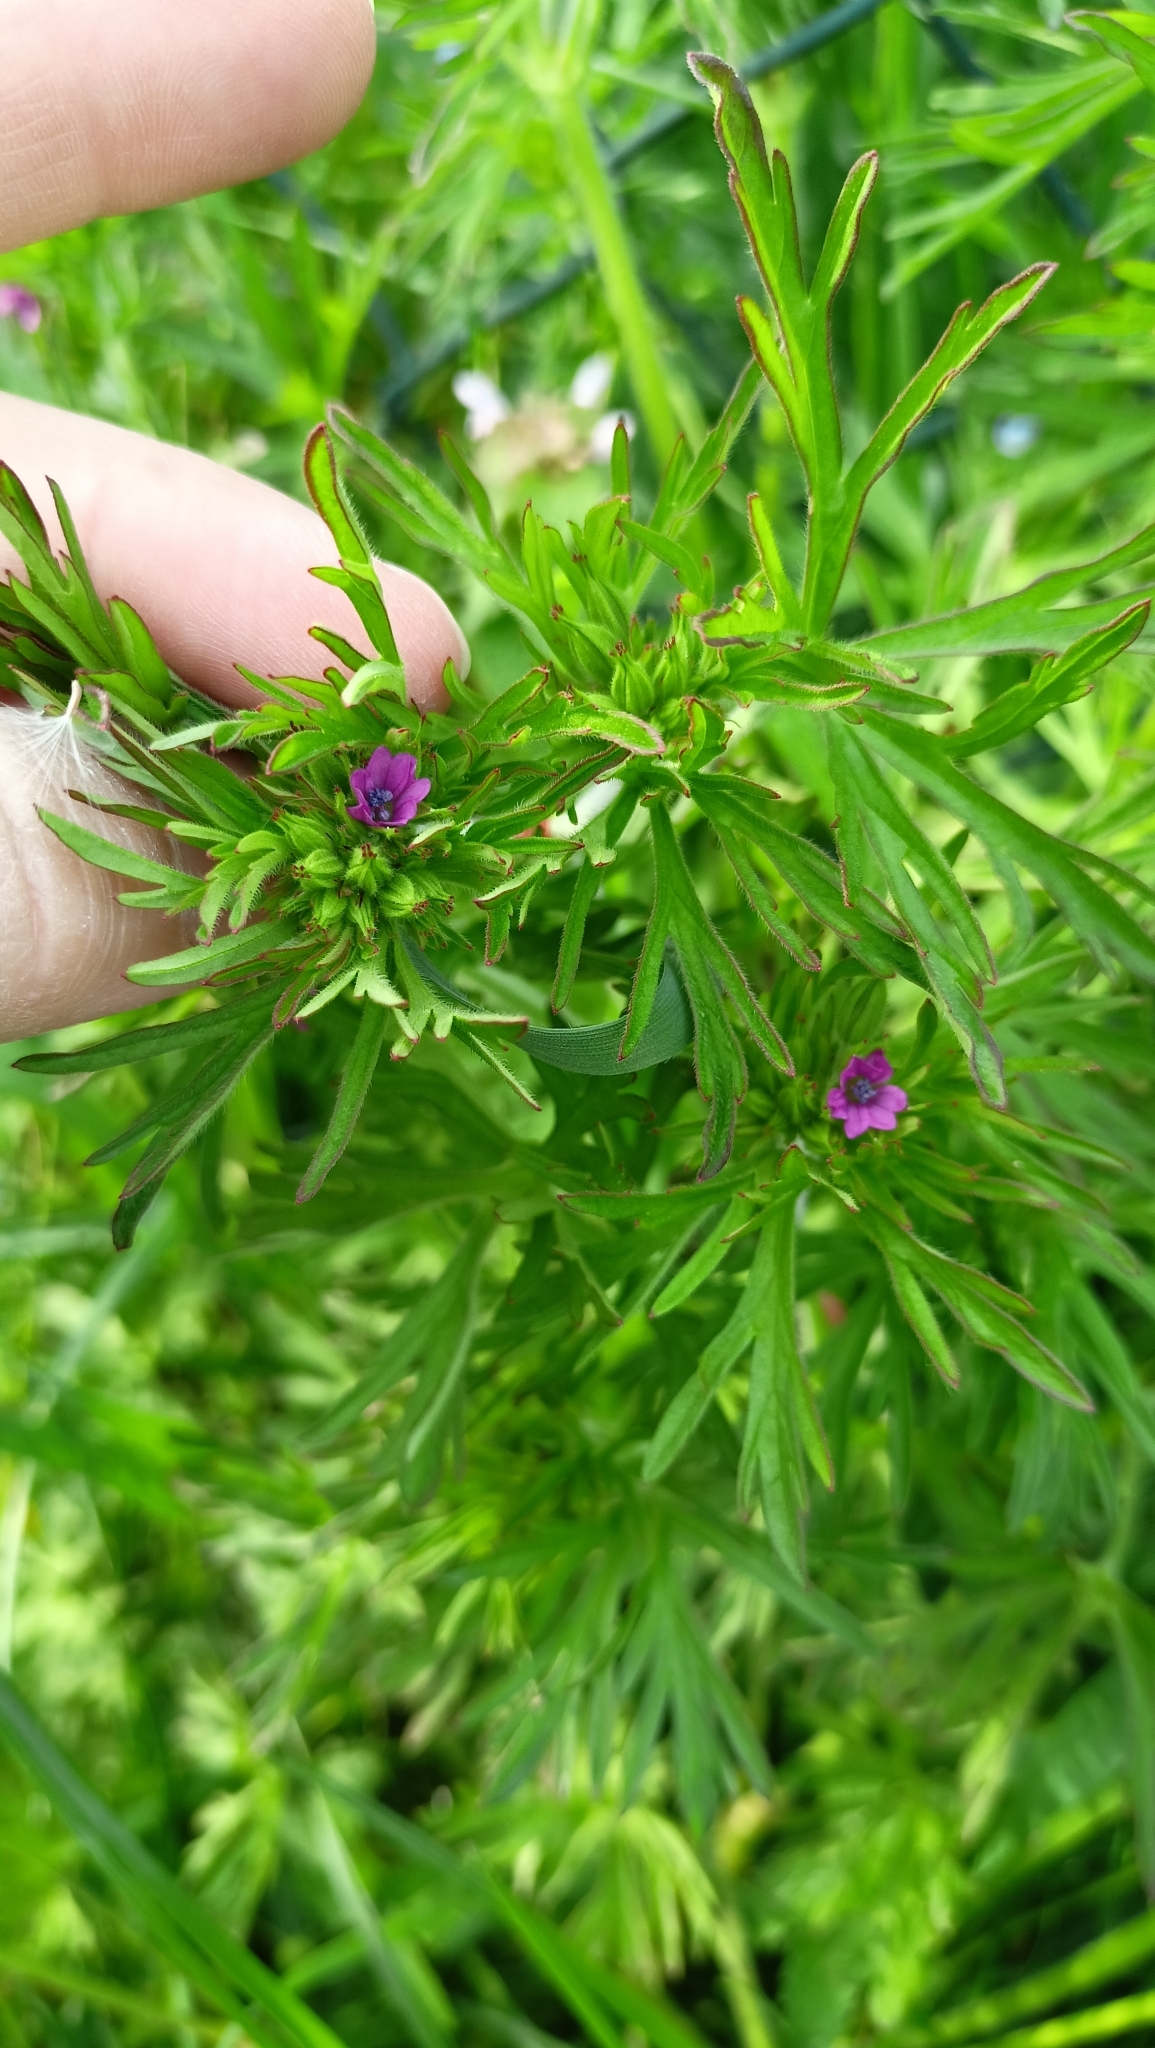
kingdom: Plantae
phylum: Tracheophyta
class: Magnoliopsida
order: Geraniales
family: Geraniaceae
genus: Geranium
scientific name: Geranium dissectum
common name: Cut-leaved crane's-bill
